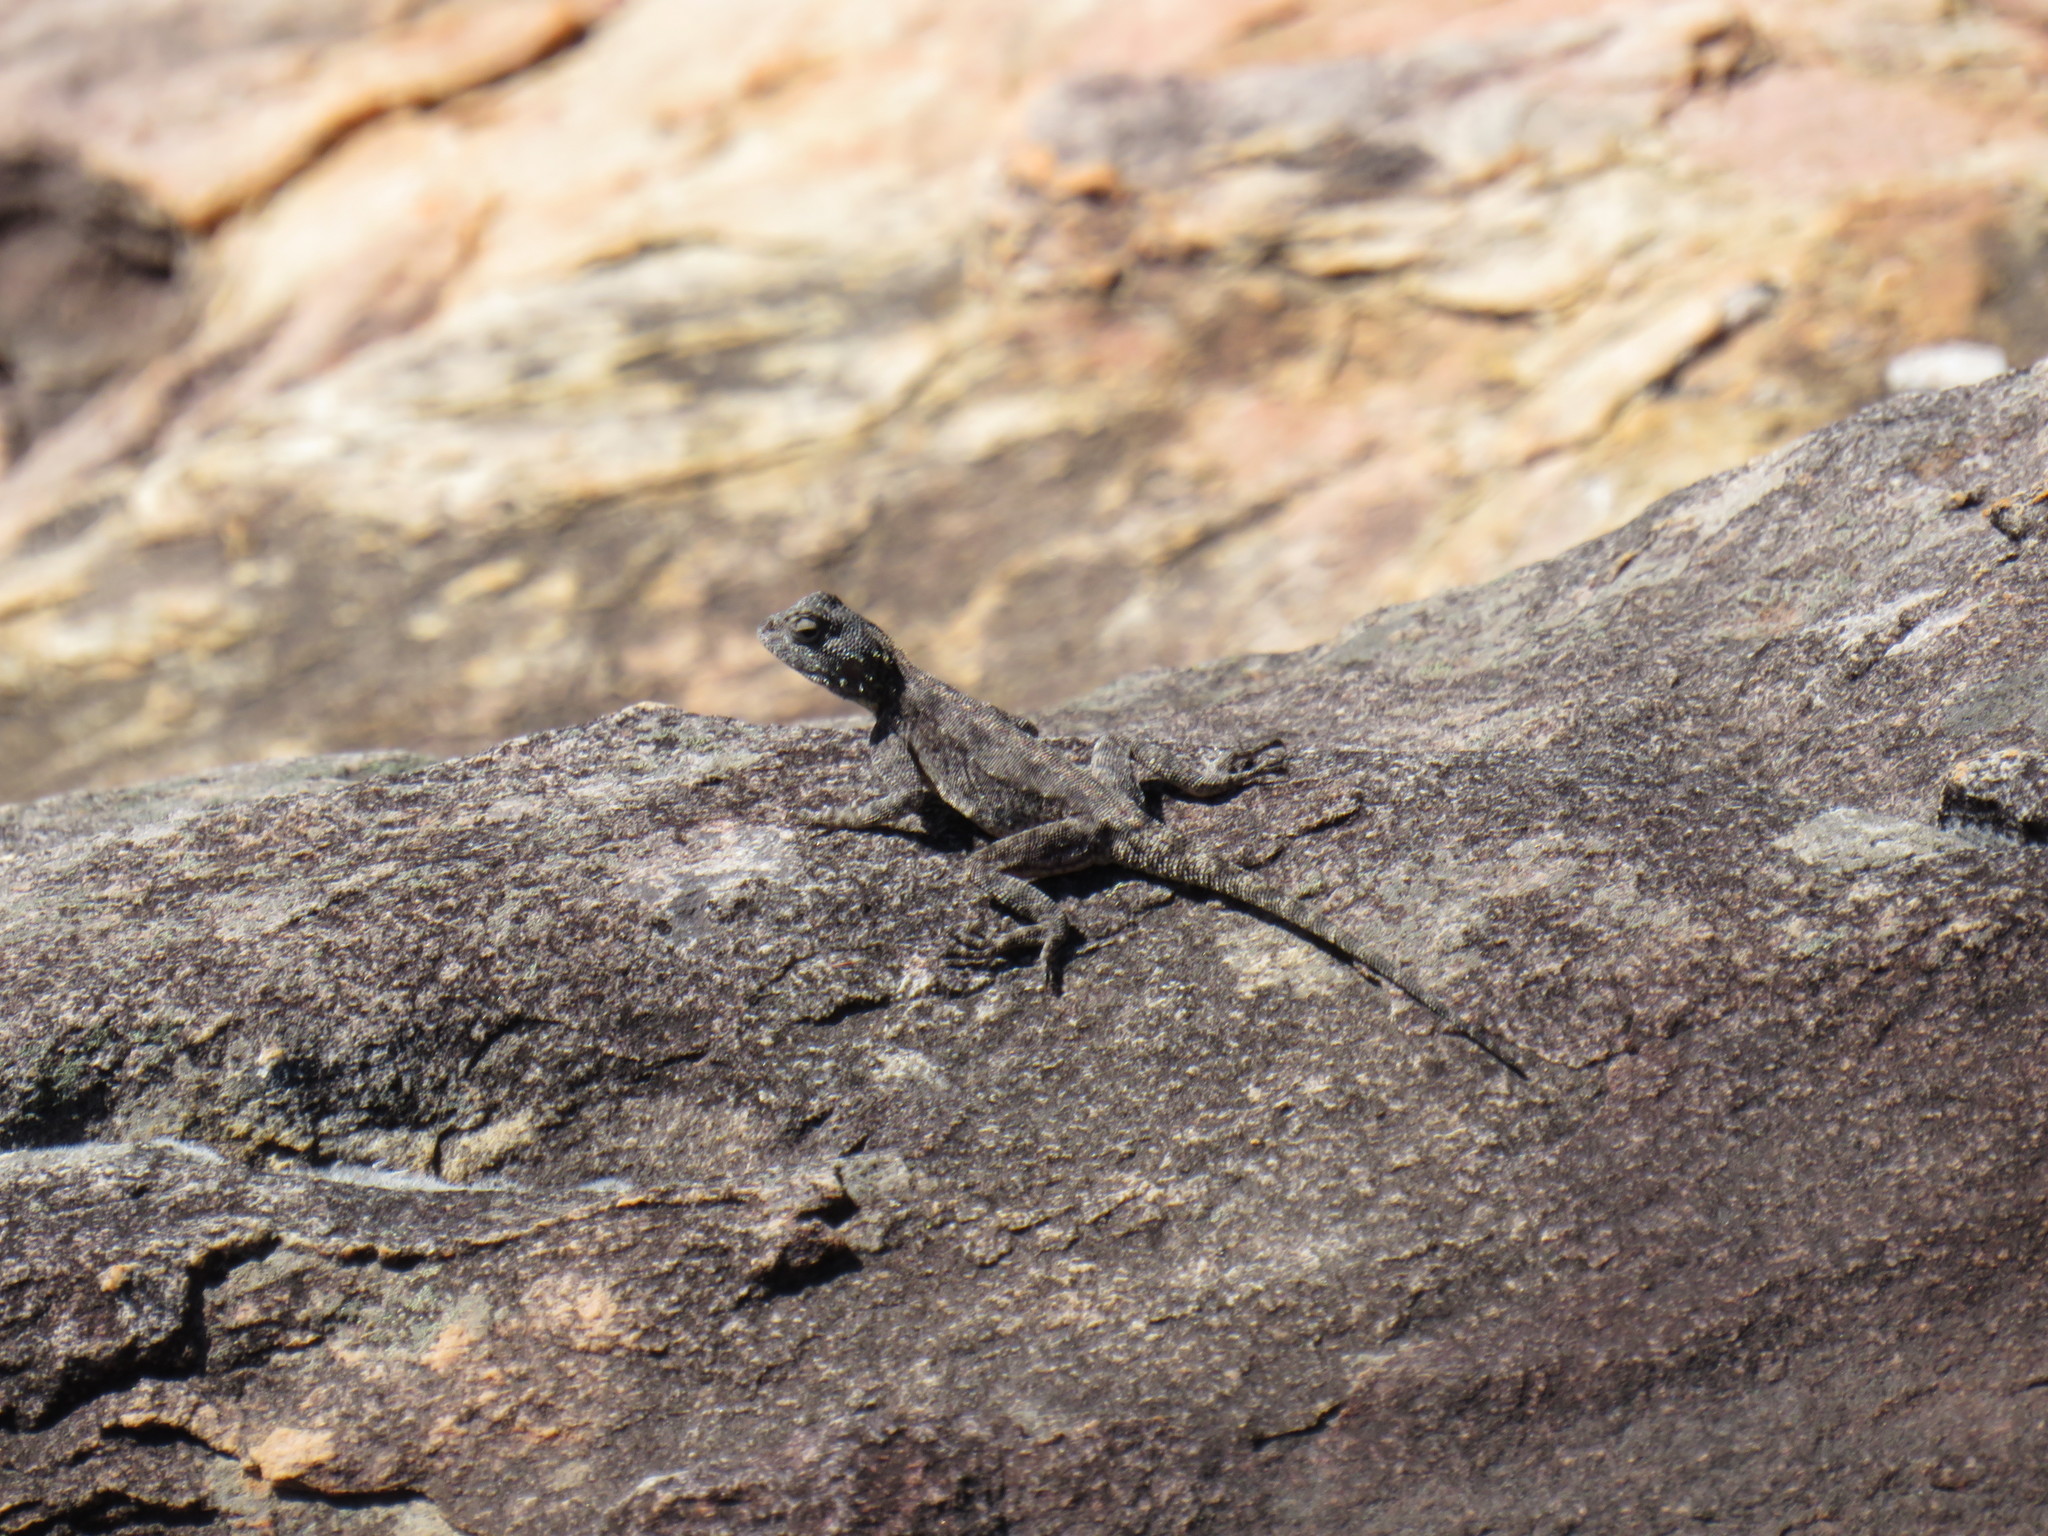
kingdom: Animalia
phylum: Chordata
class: Squamata
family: Agamidae
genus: Agama
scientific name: Agama atra
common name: Southern african rock agama
